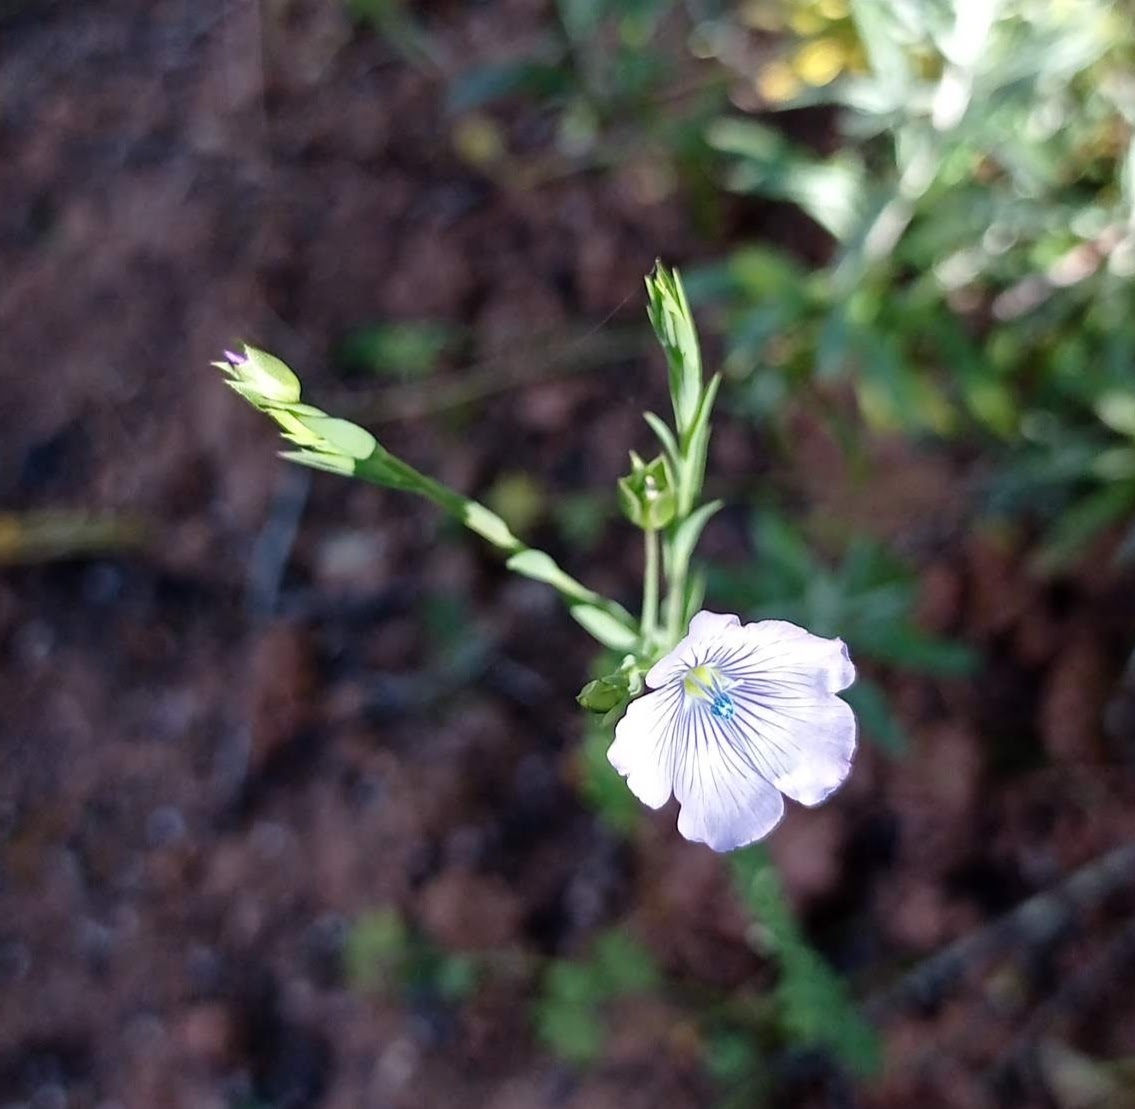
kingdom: Plantae
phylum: Tracheophyta
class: Magnoliopsida
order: Malpighiales
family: Linaceae
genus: Linum
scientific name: Linum bienne
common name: Pale flax
